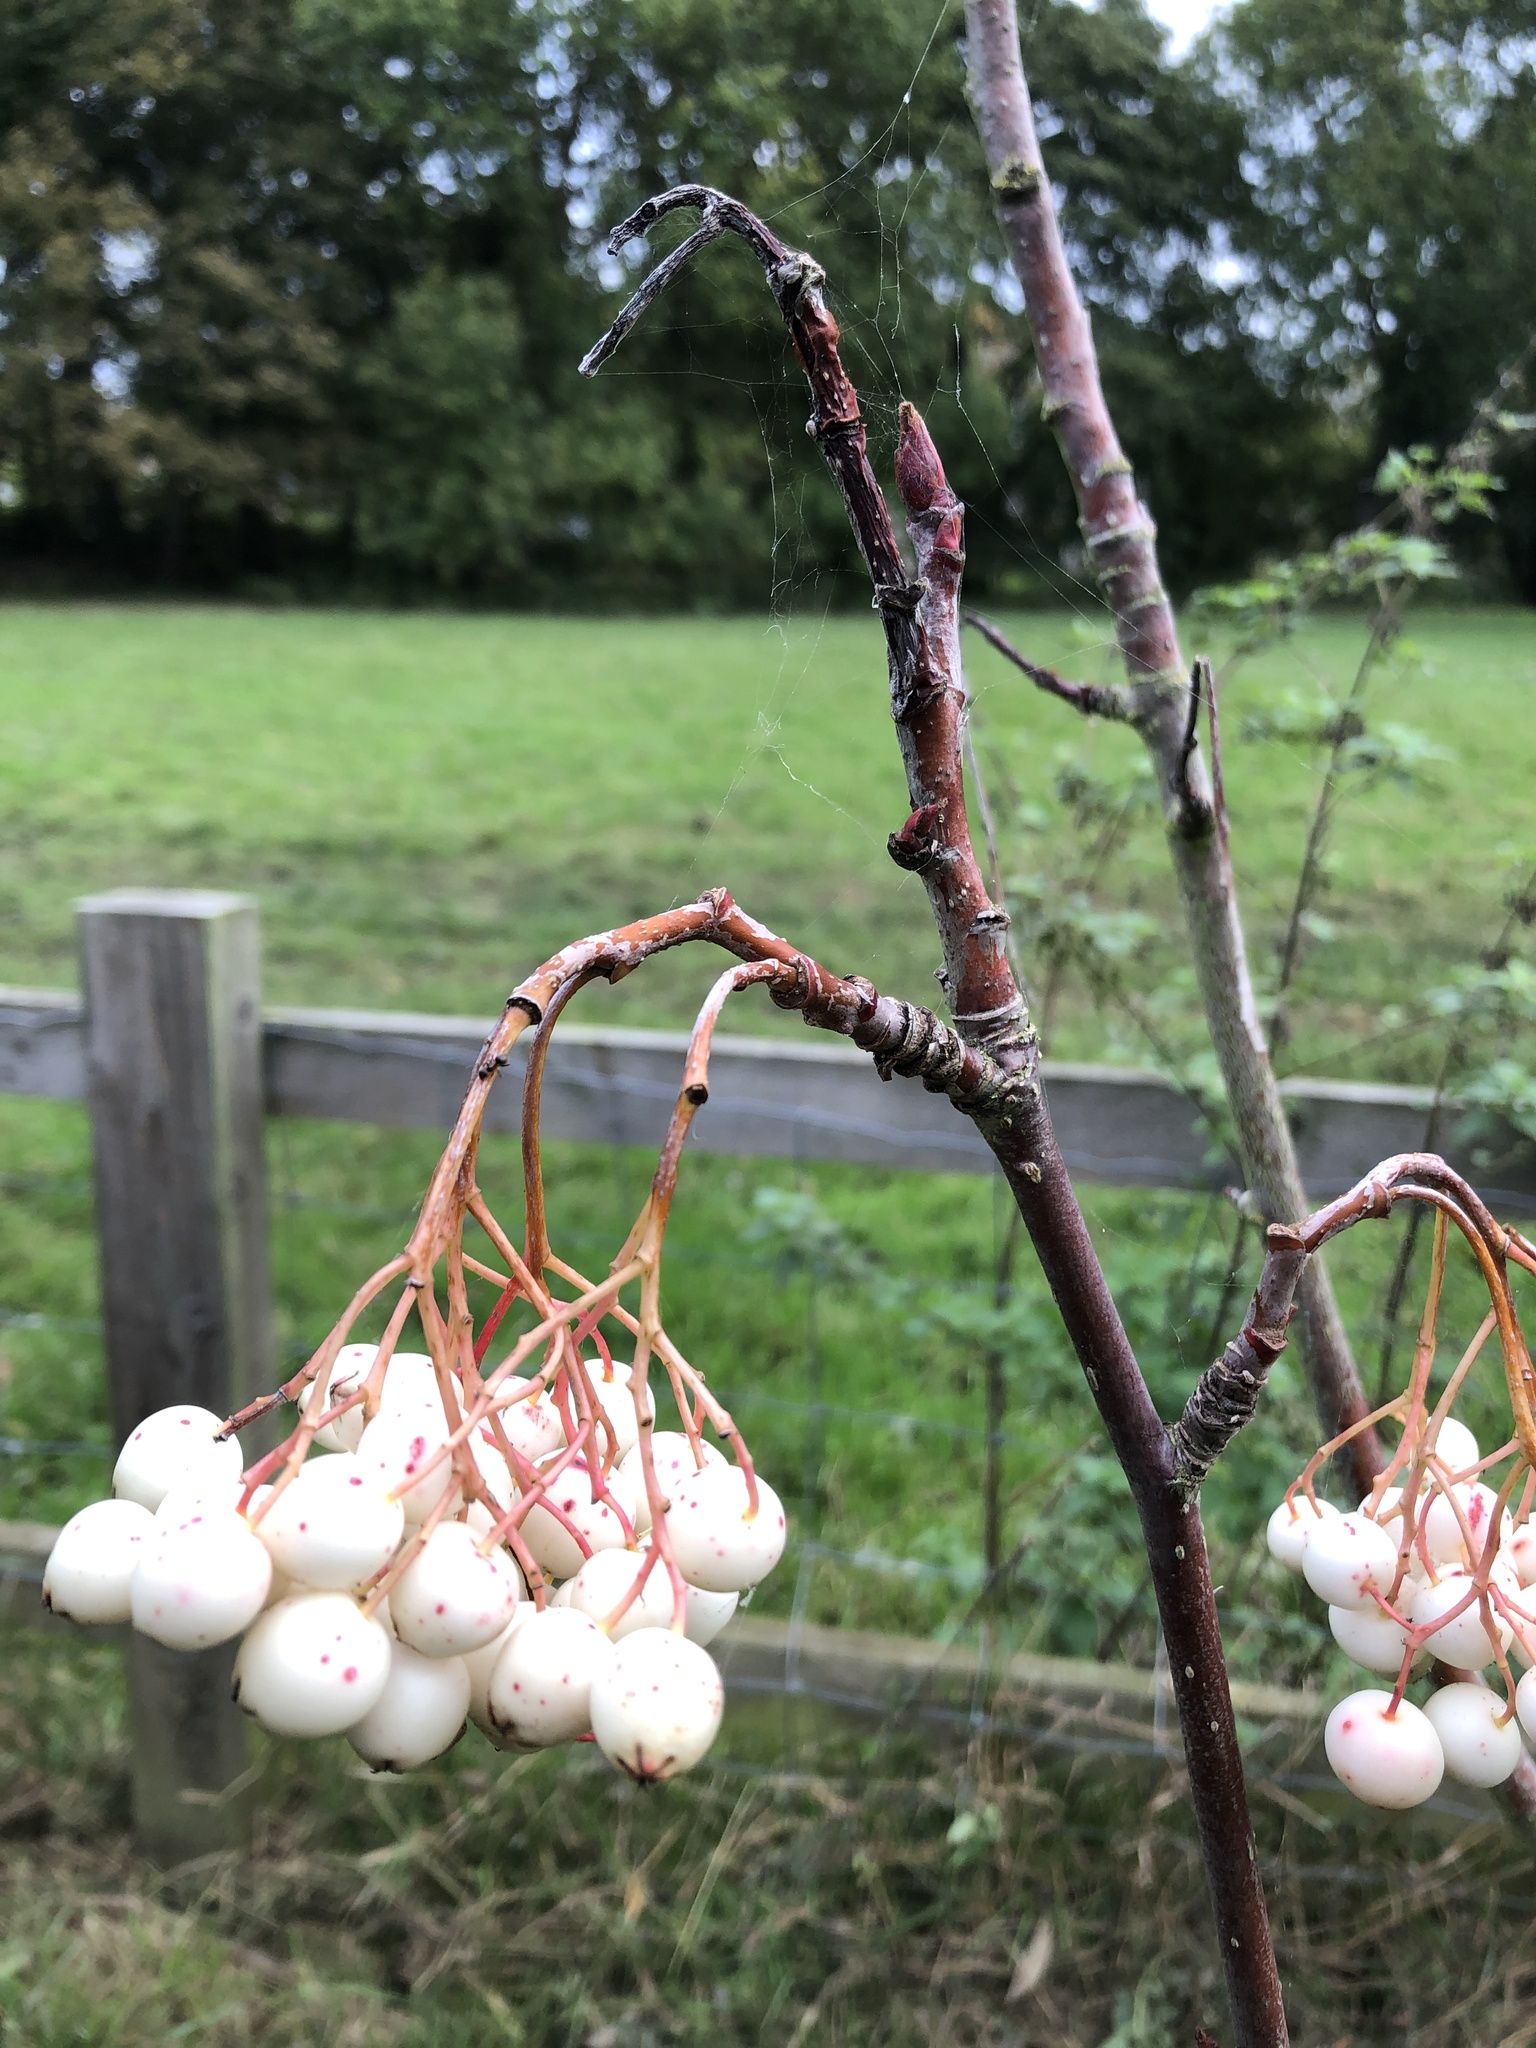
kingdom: Plantae
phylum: Tracheophyta
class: Magnoliopsida
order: Cornales
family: Cornaceae
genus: Cornus
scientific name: Cornus sericea
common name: Red-osier dogwood
